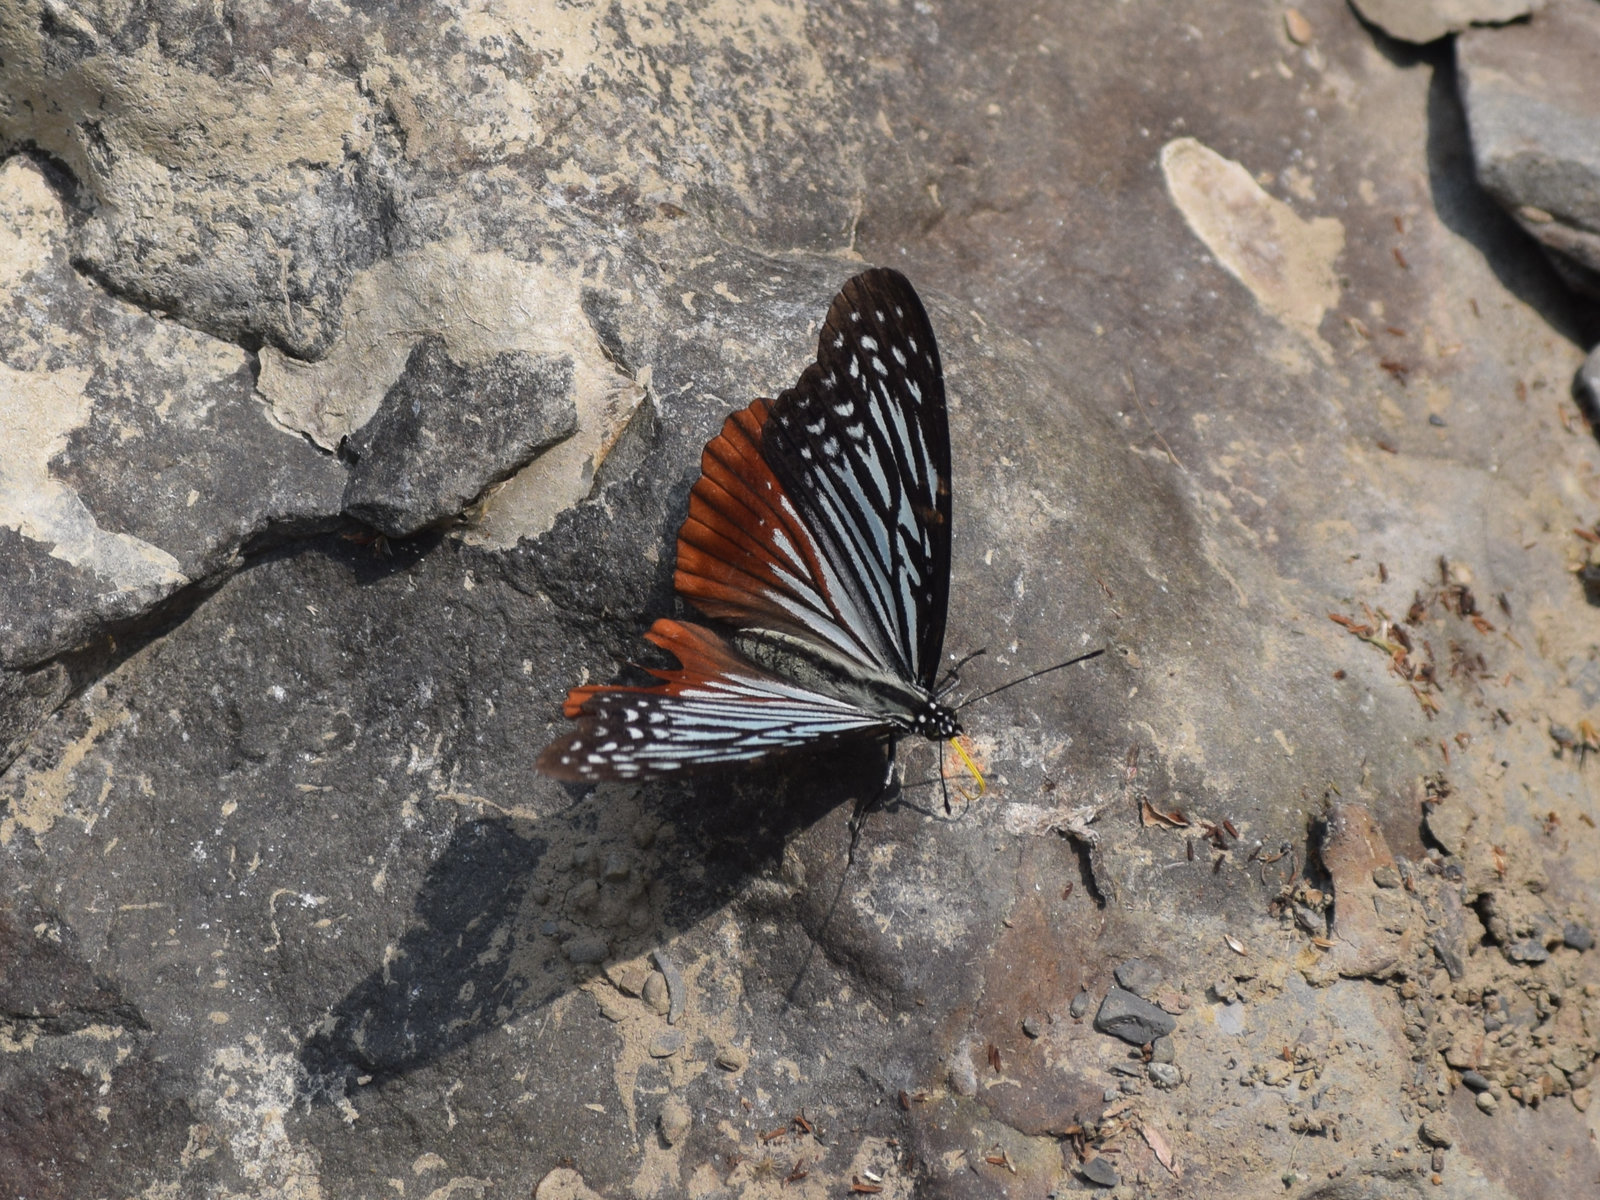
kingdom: Animalia
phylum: Arthropoda
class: Insecta
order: Lepidoptera
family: Nymphalidae
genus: Hestinalis
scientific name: Hestinalis nama
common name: Circe
